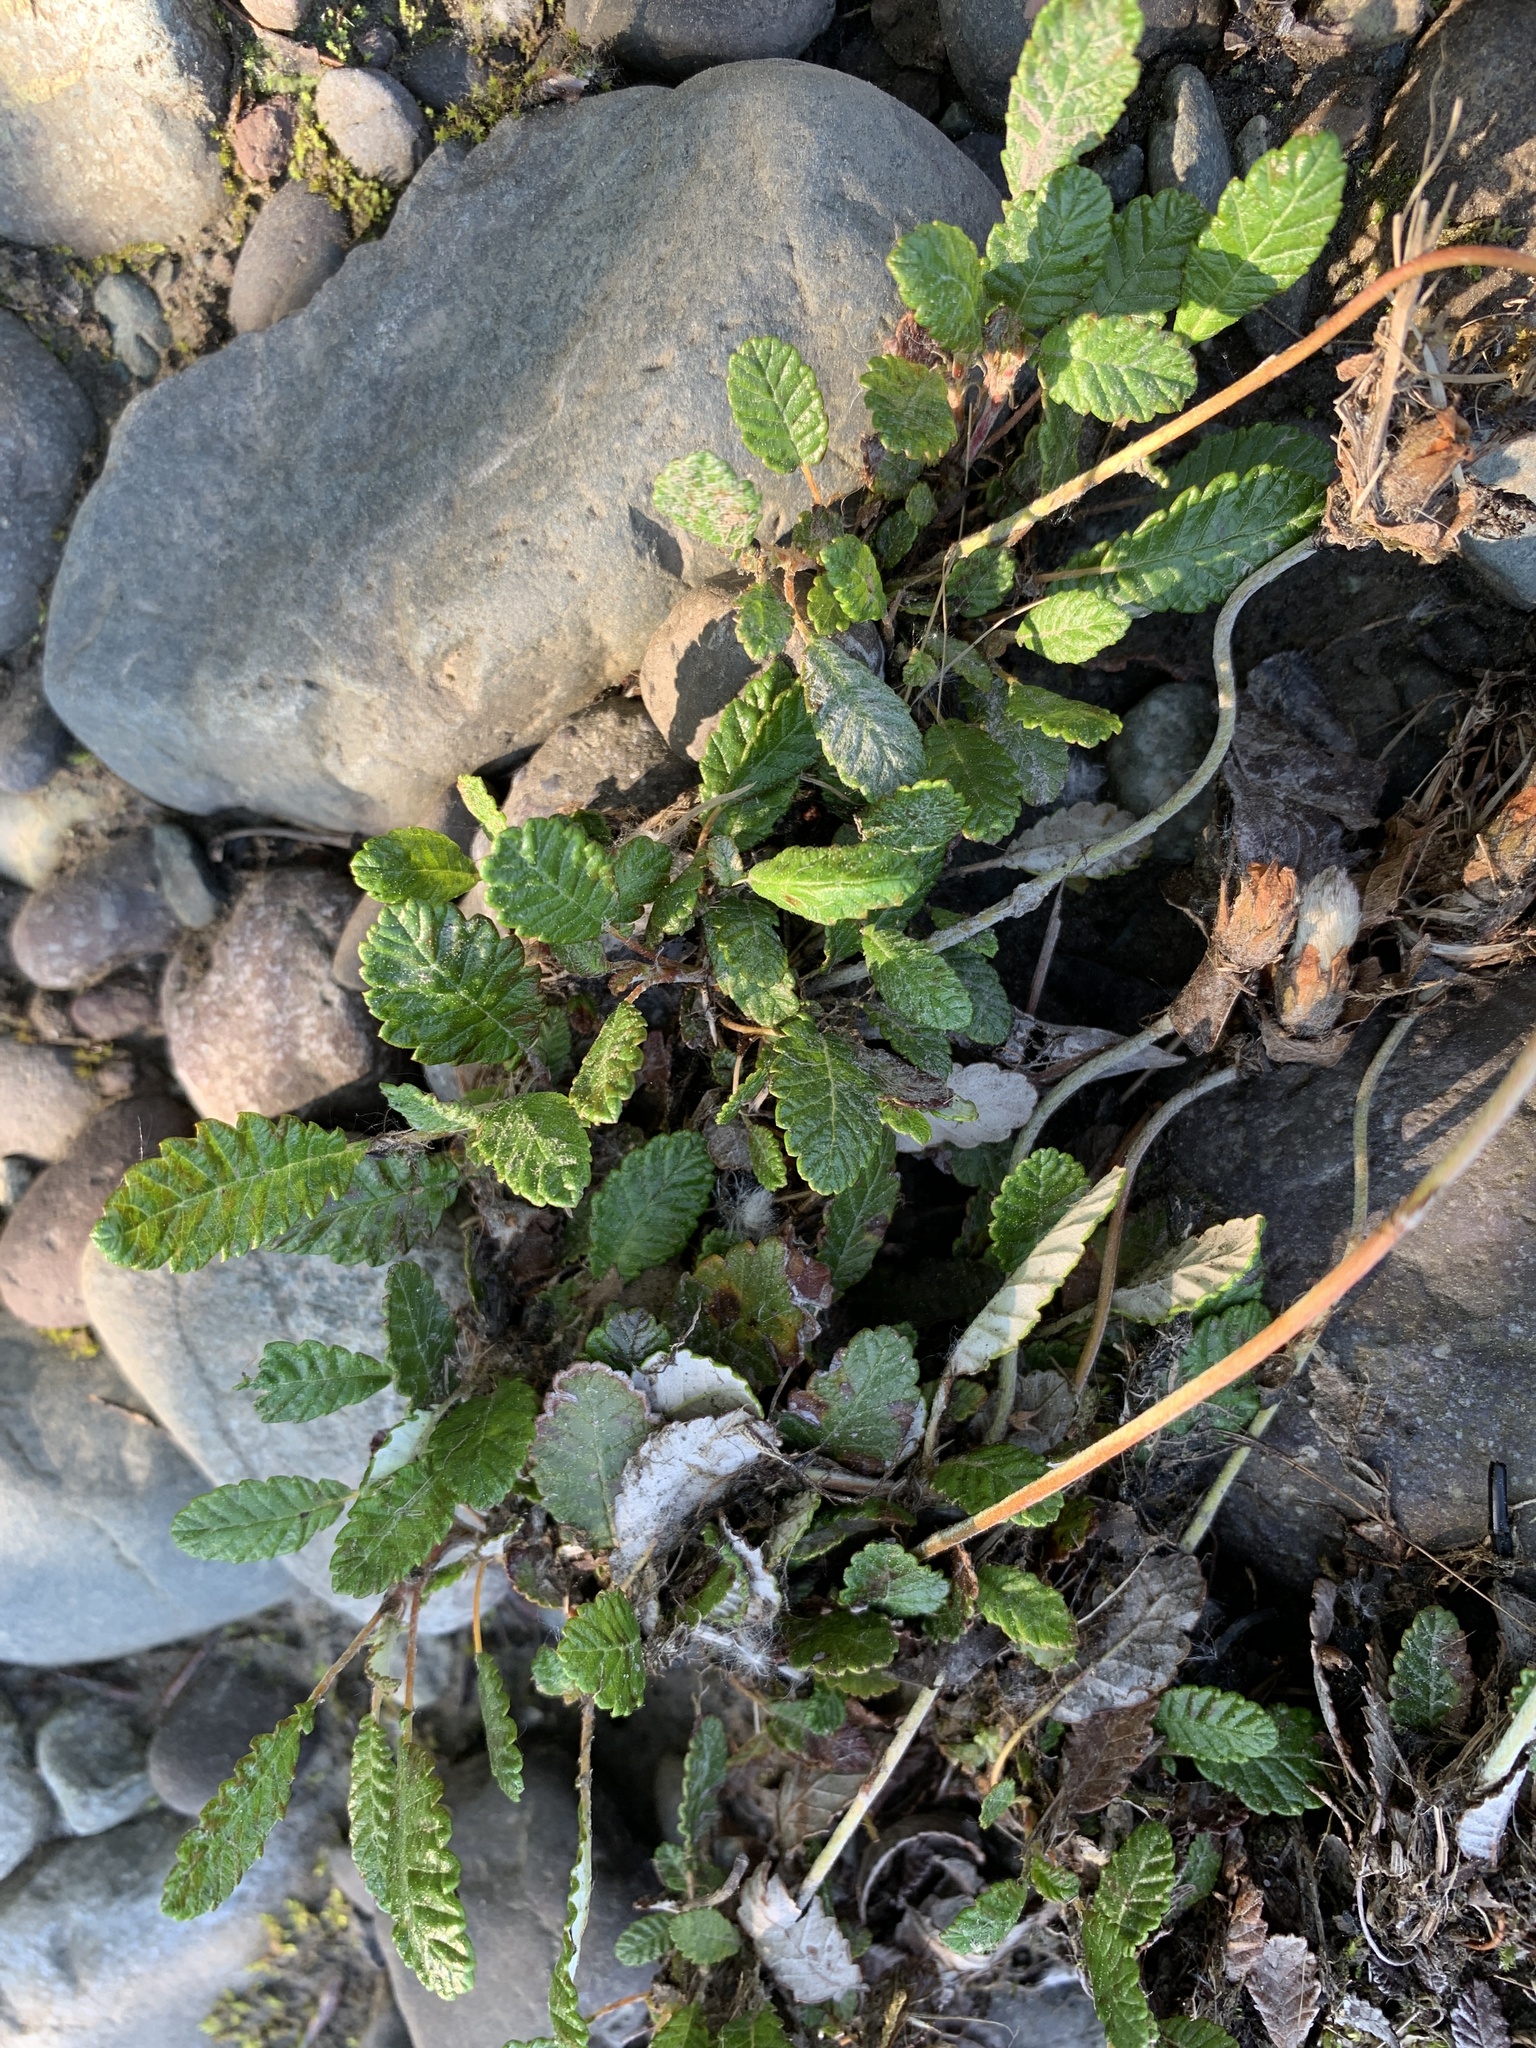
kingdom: Plantae
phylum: Tracheophyta
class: Magnoliopsida
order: Rosales
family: Rosaceae
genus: Dryas
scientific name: Dryas drummondii
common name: Drummond's dryad
